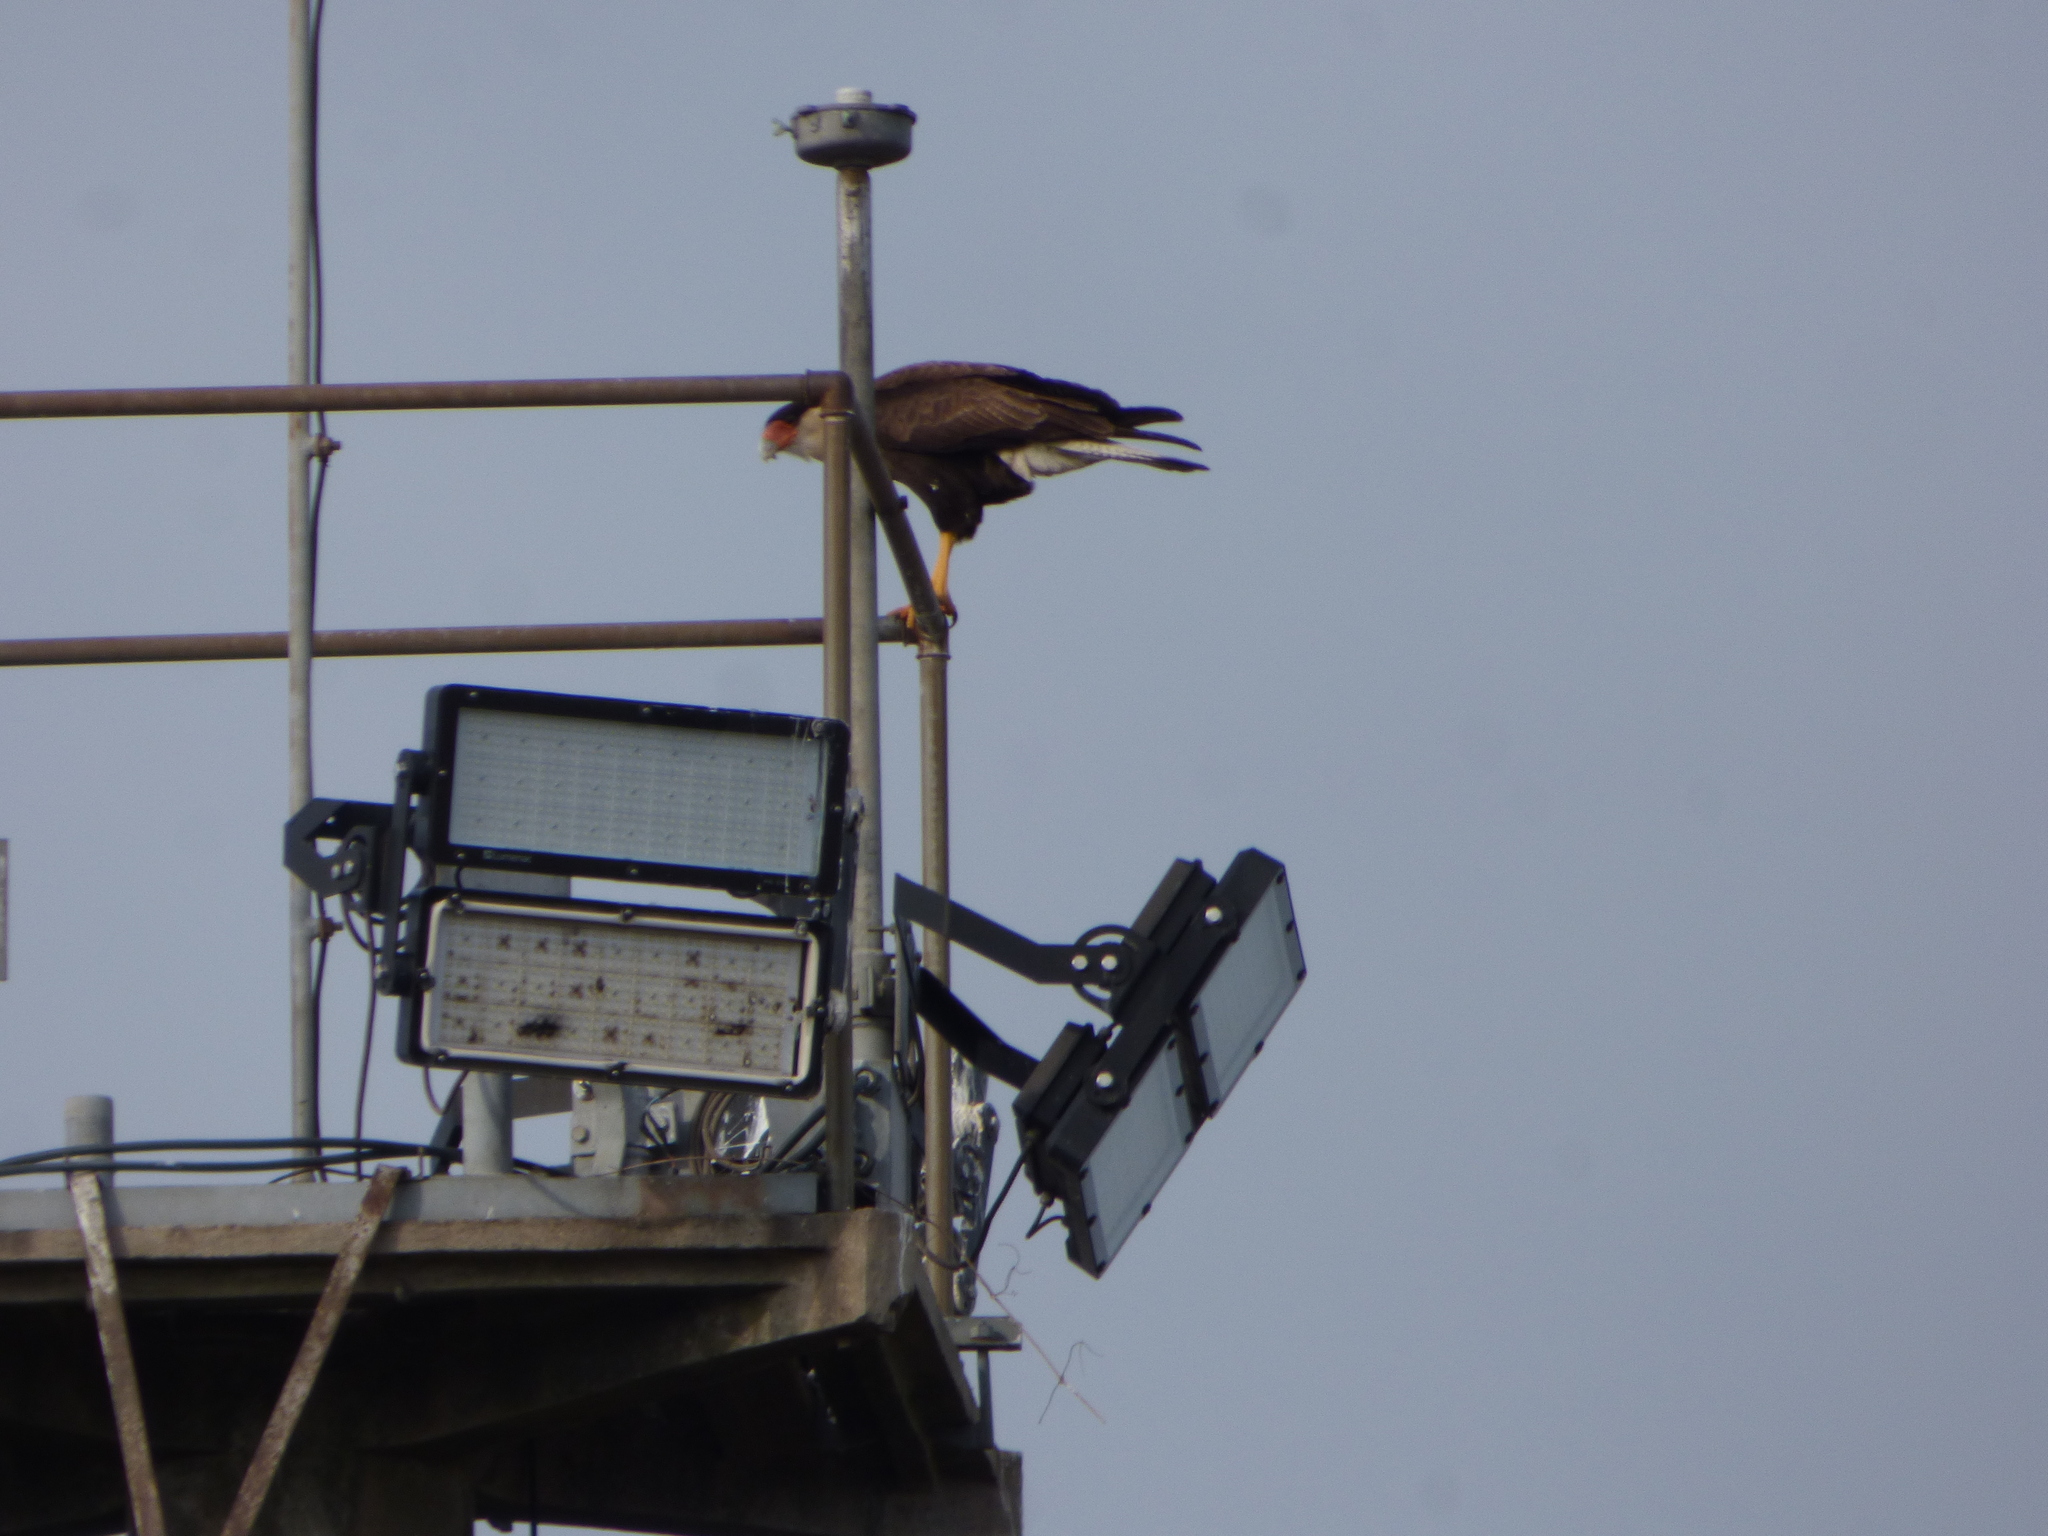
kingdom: Animalia
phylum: Chordata
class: Aves
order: Falconiformes
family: Falconidae
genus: Caracara
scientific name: Caracara plancus
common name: Southern caracara
